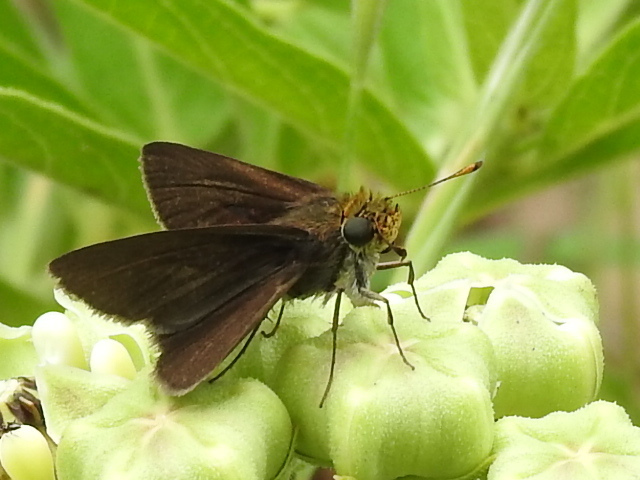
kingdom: Animalia
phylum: Arthropoda
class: Insecta
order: Lepidoptera
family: Hesperiidae
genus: Euphyes
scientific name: Euphyes vestris
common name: Dun skipper
